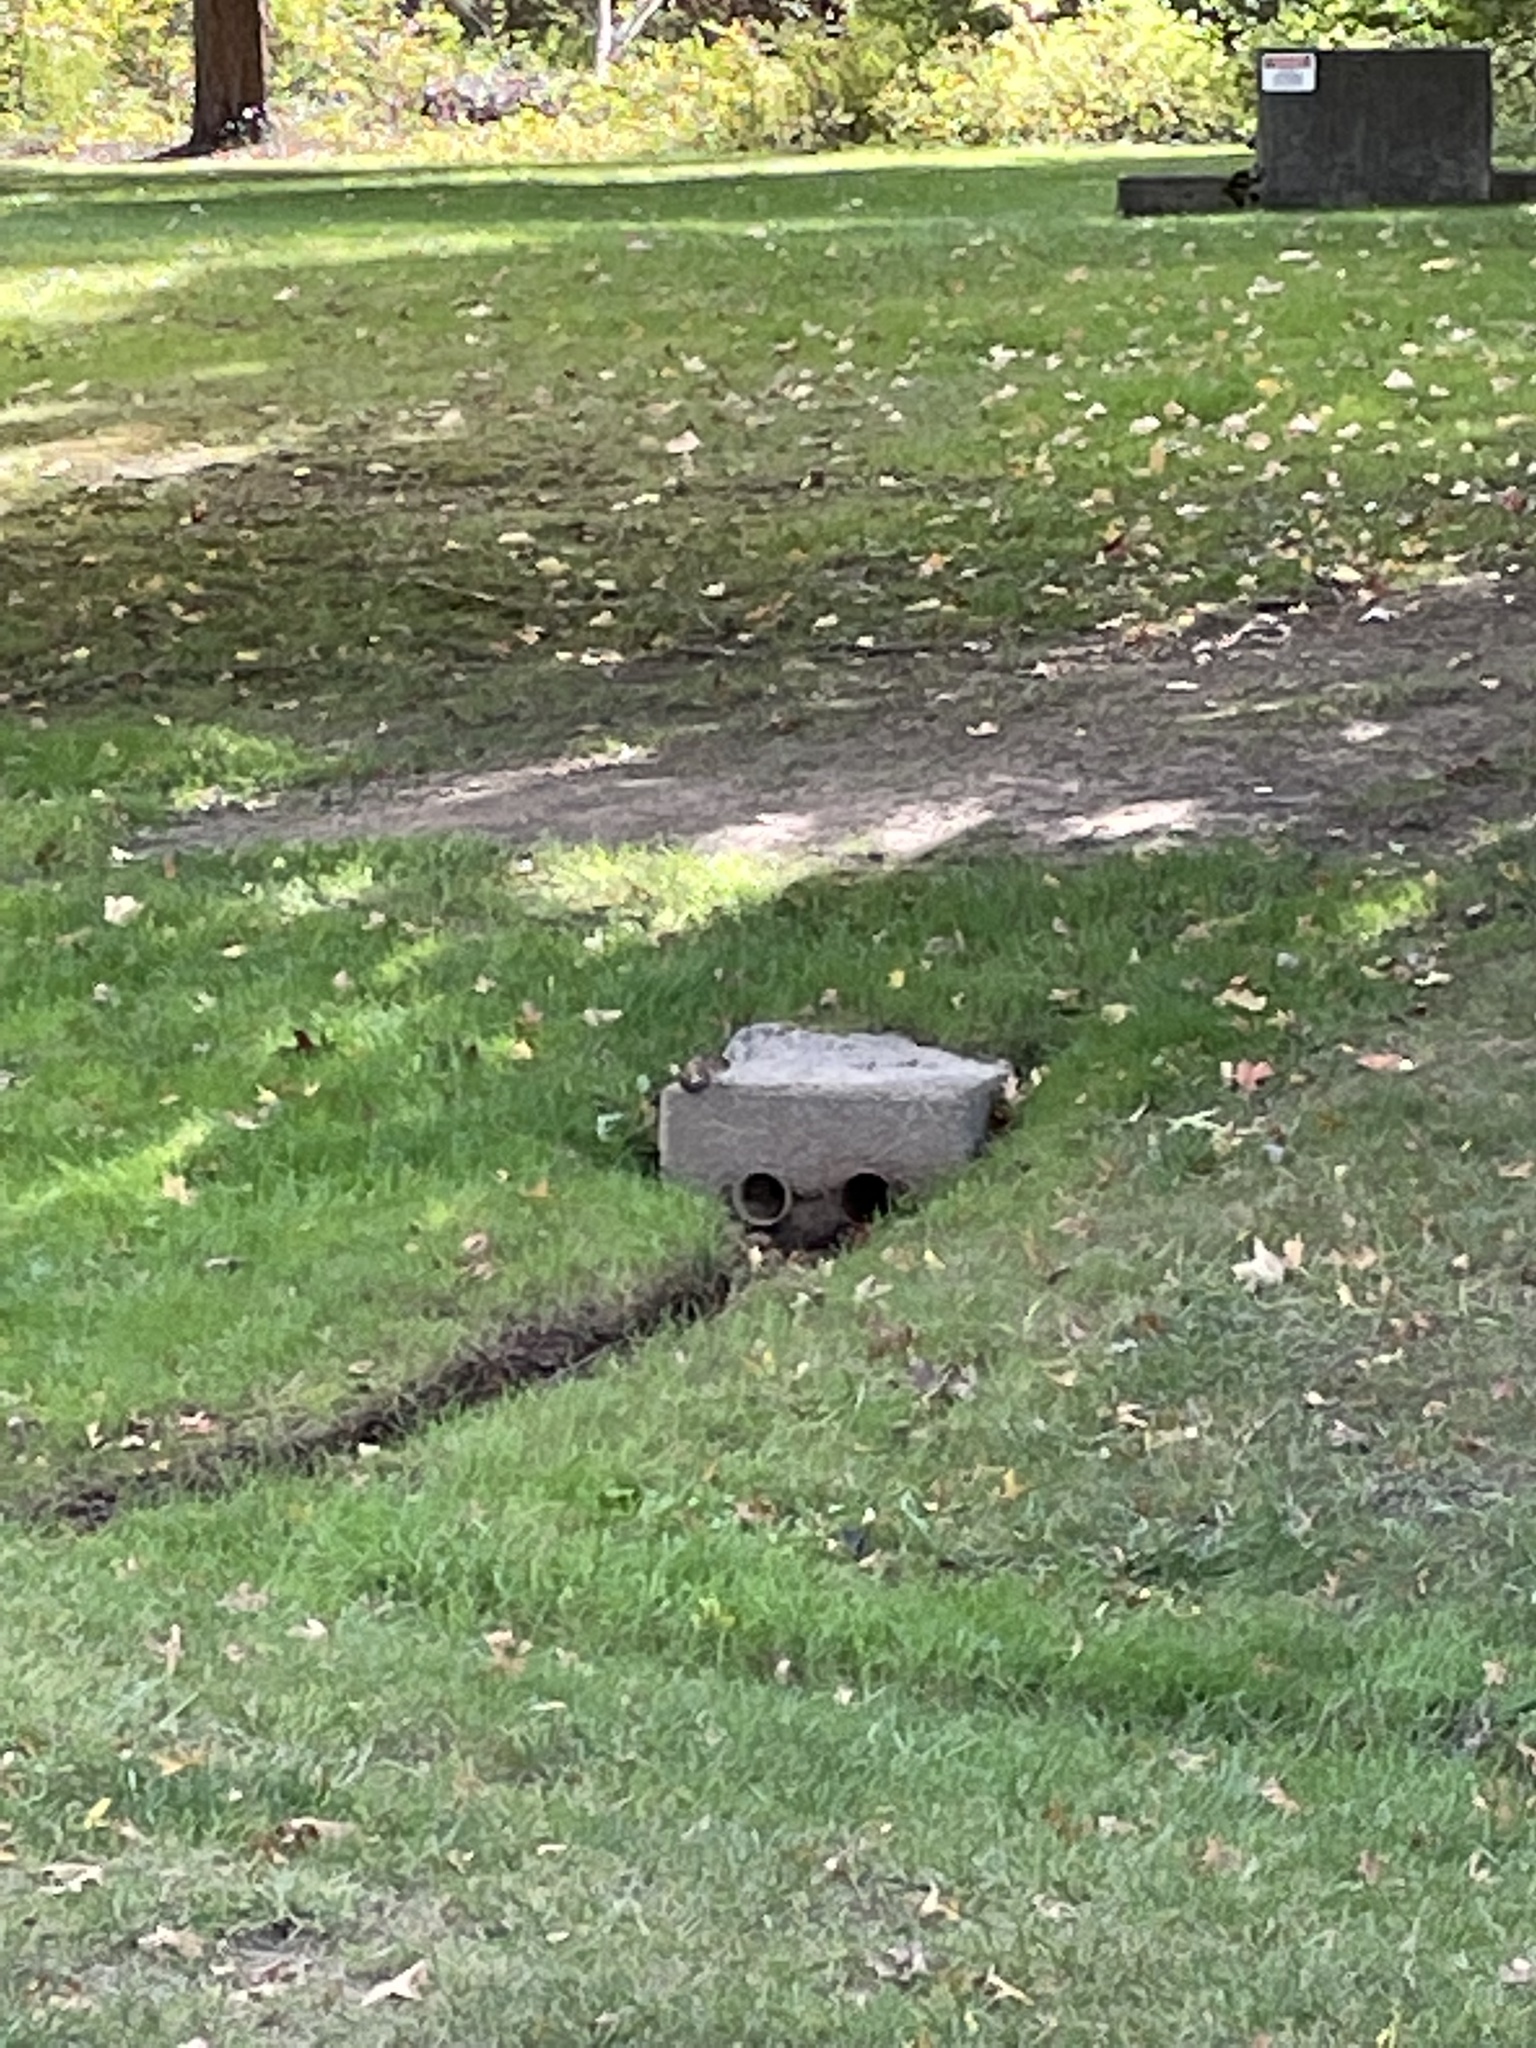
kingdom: Animalia
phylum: Chordata
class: Mammalia
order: Rodentia
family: Sciuridae
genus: Tamias
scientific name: Tamias striatus
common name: Eastern chipmunk
